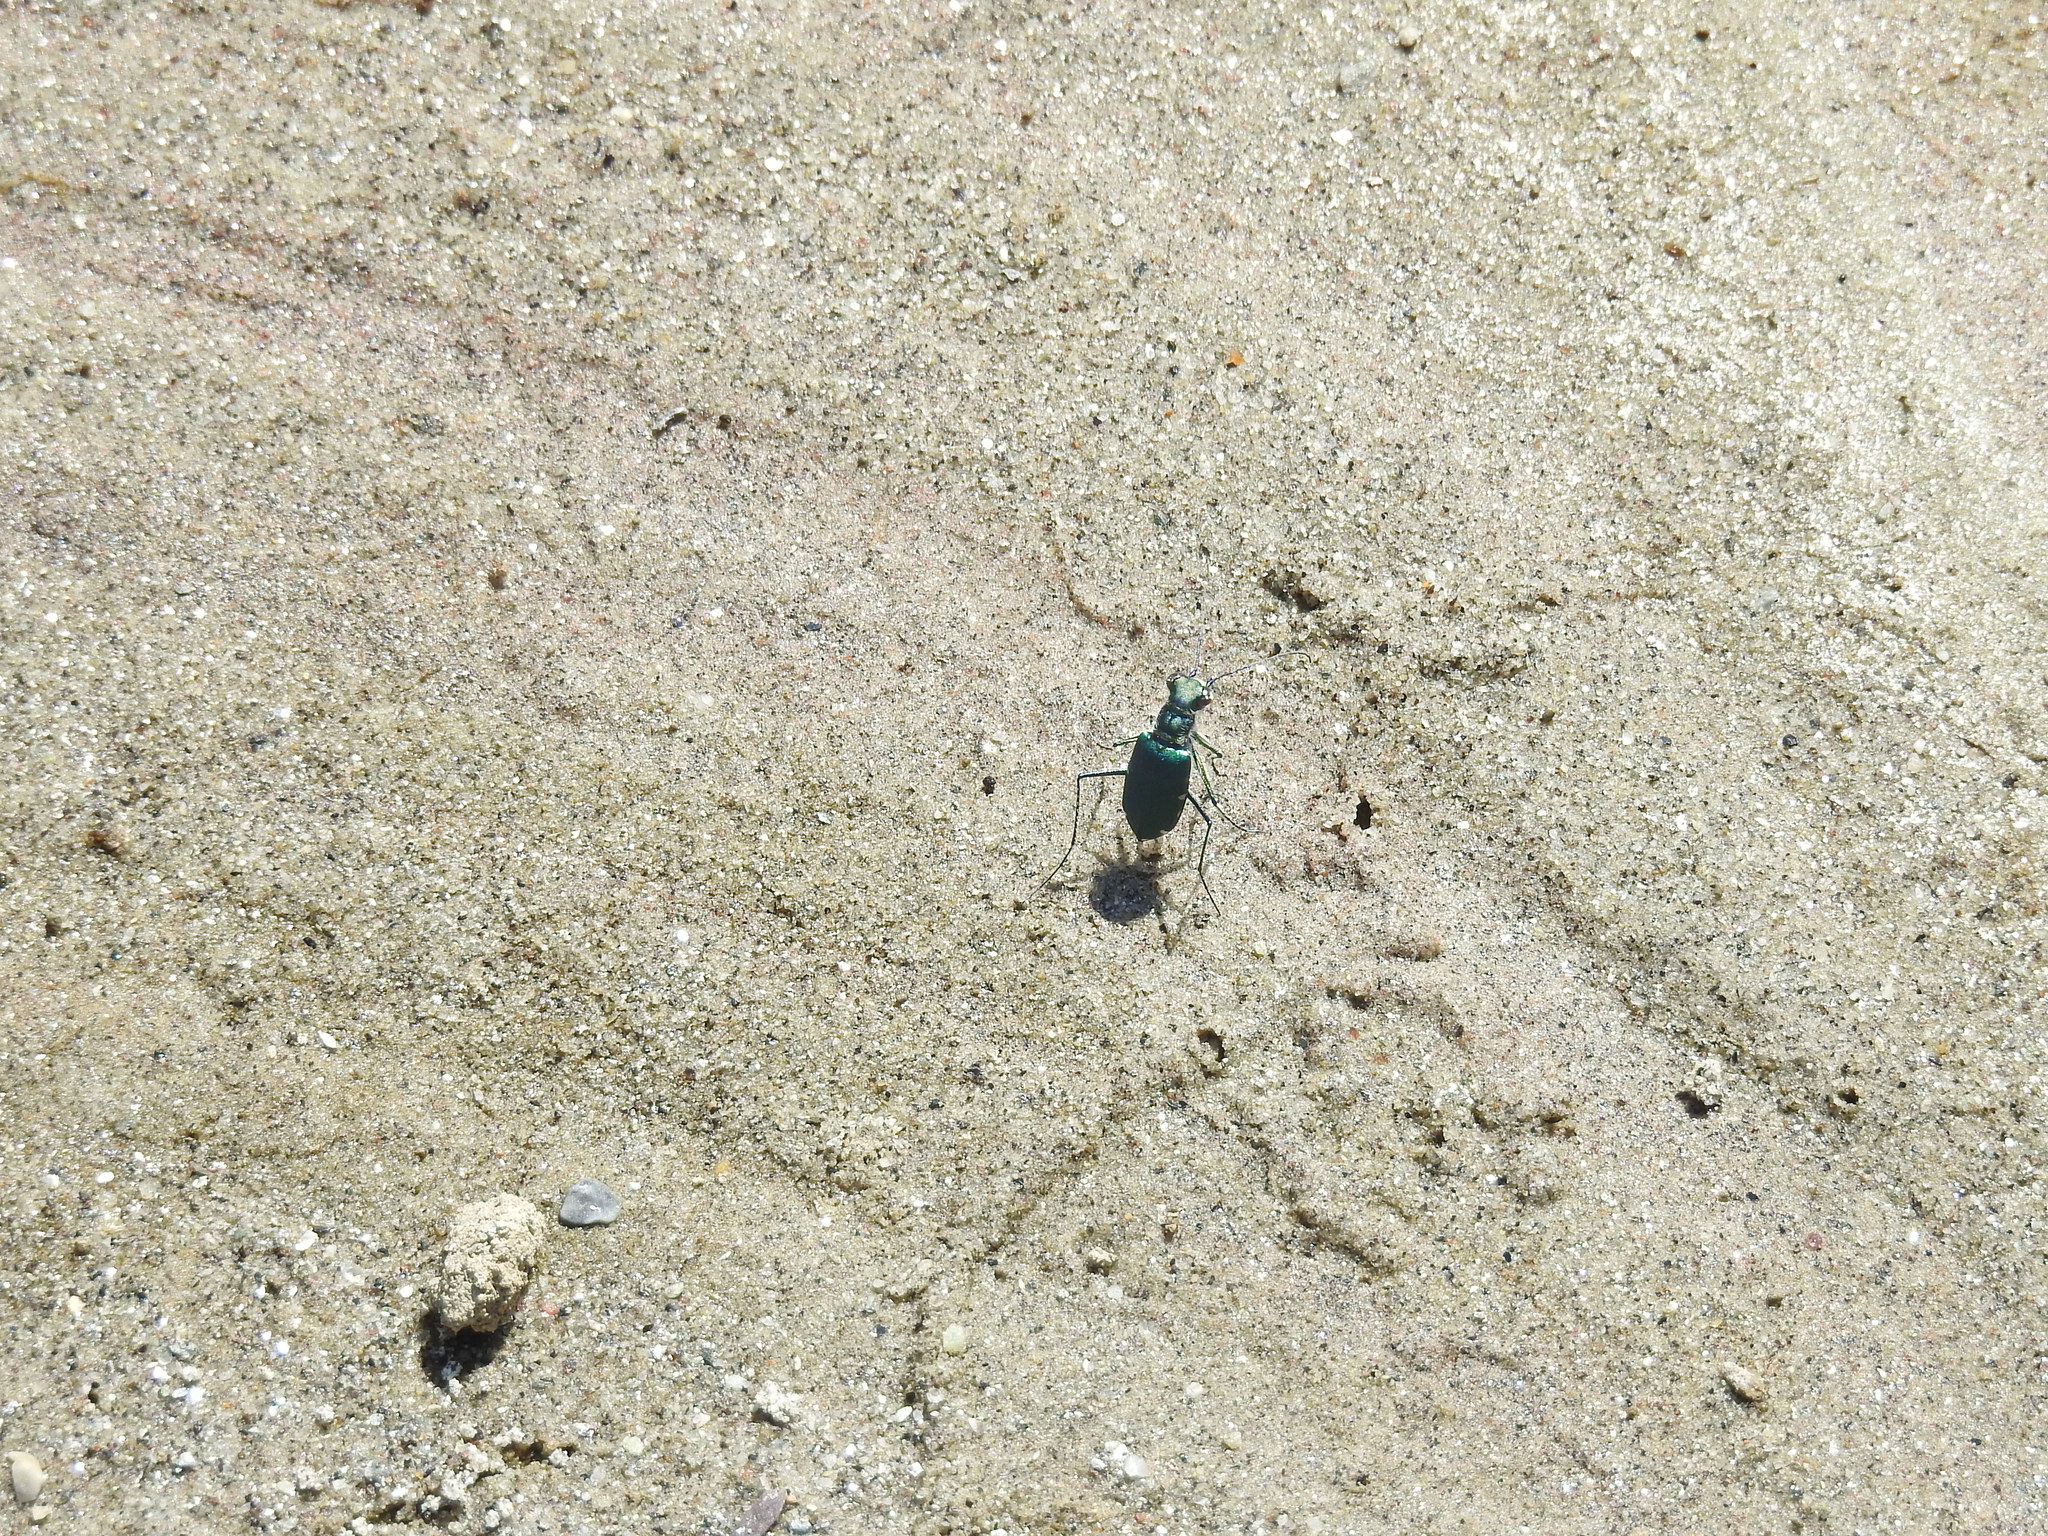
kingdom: Animalia
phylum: Arthropoda
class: Insecta
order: Coleoptera
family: Carabidae
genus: Cicindela
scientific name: Cicindela funerea
